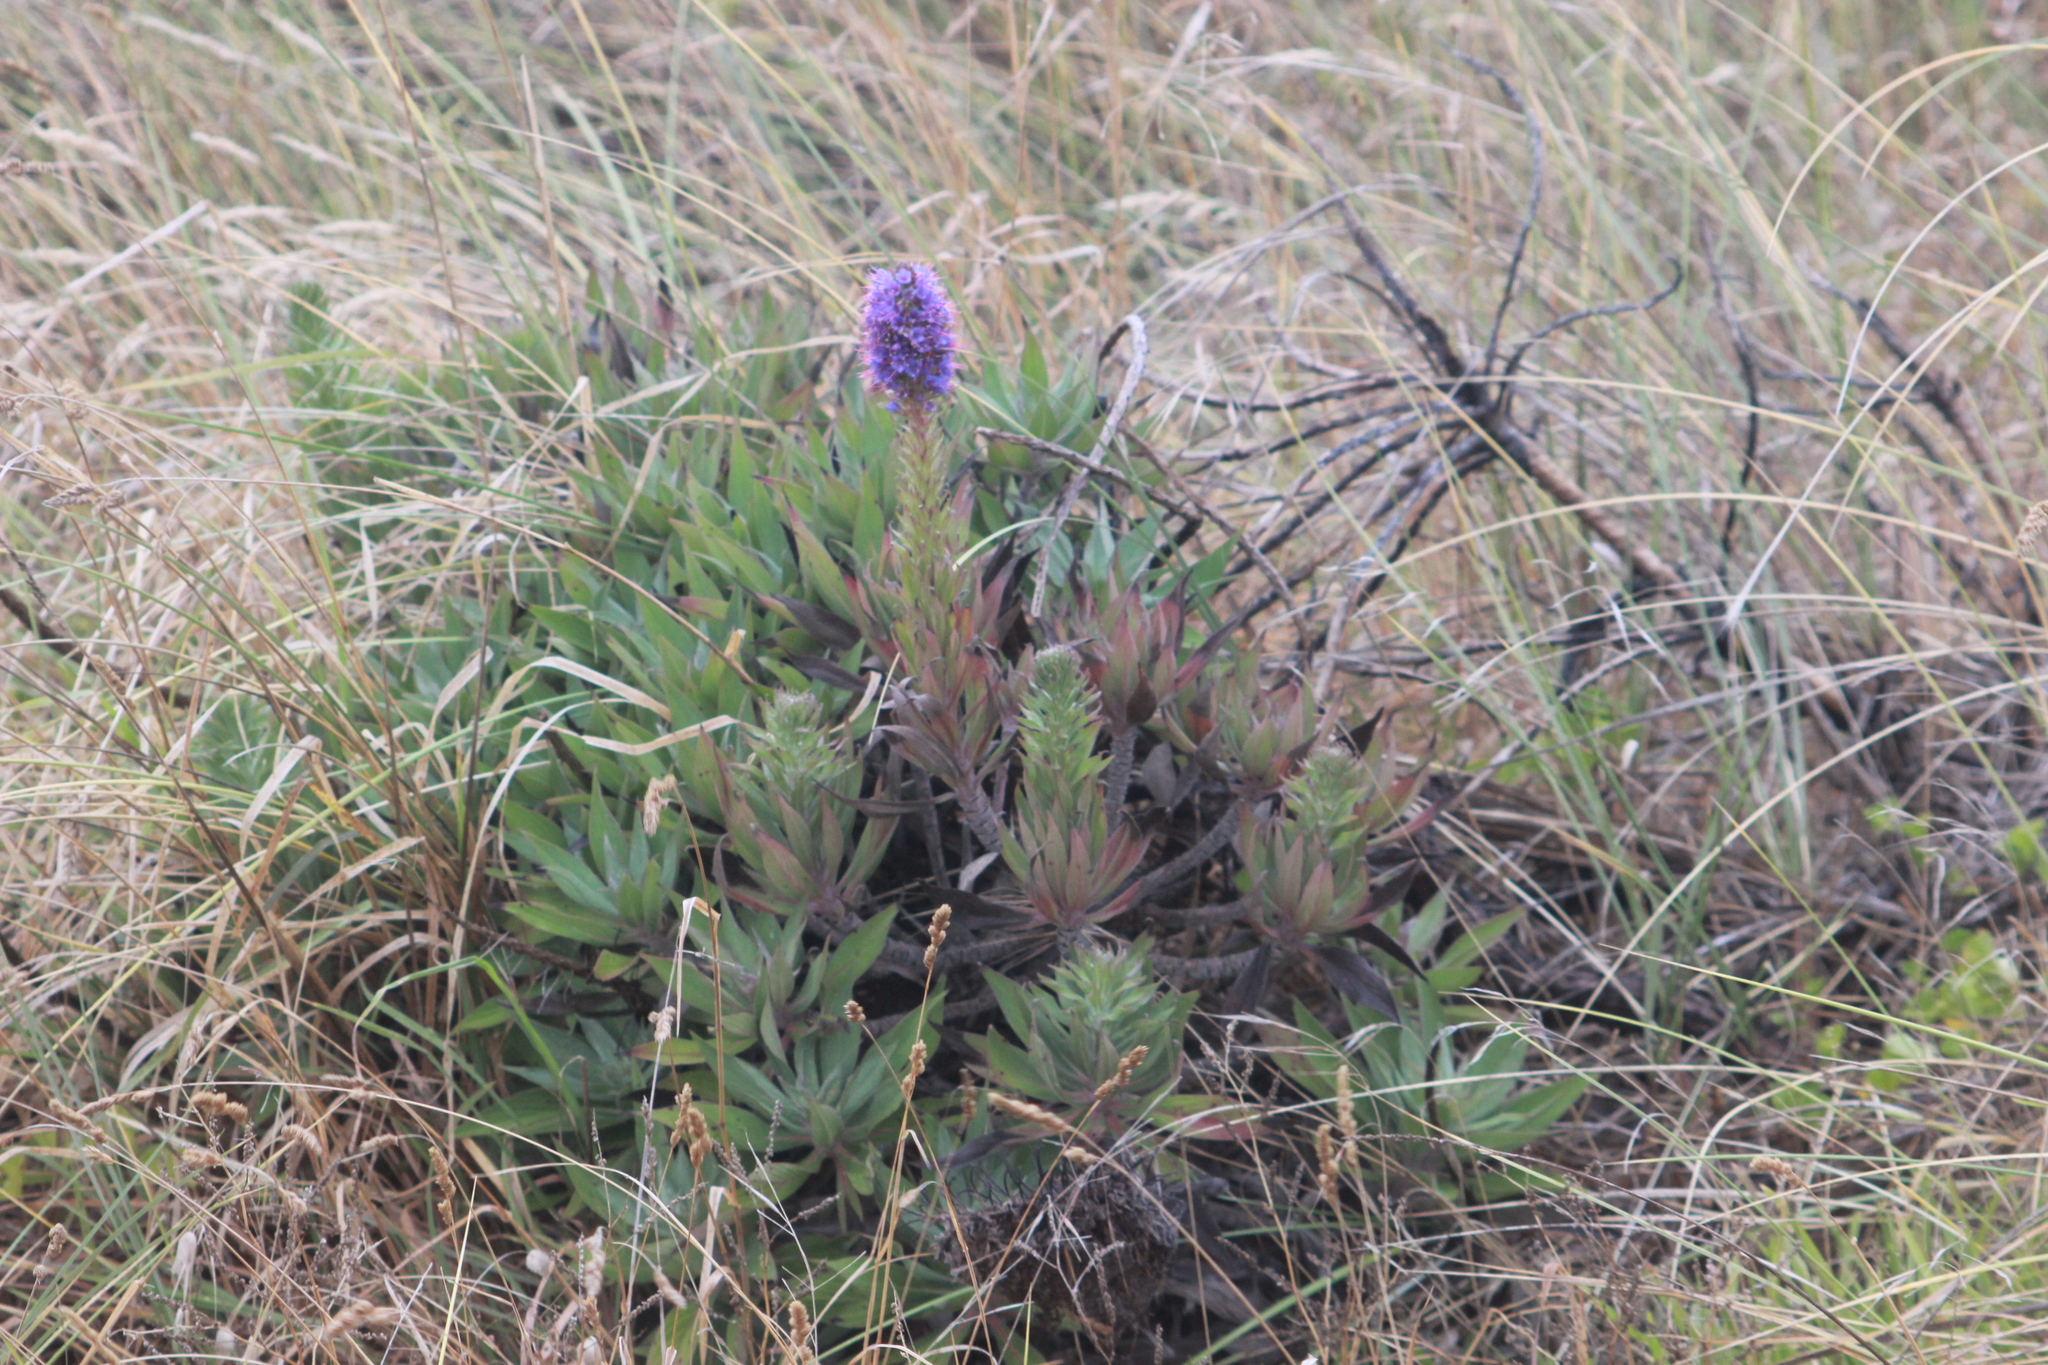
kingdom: Plantae
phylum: Tracheophyta
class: Magnoliopsida
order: Boraginales
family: Boraginaceae
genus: Echium
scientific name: Echium candicans
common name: Pride of madeira
